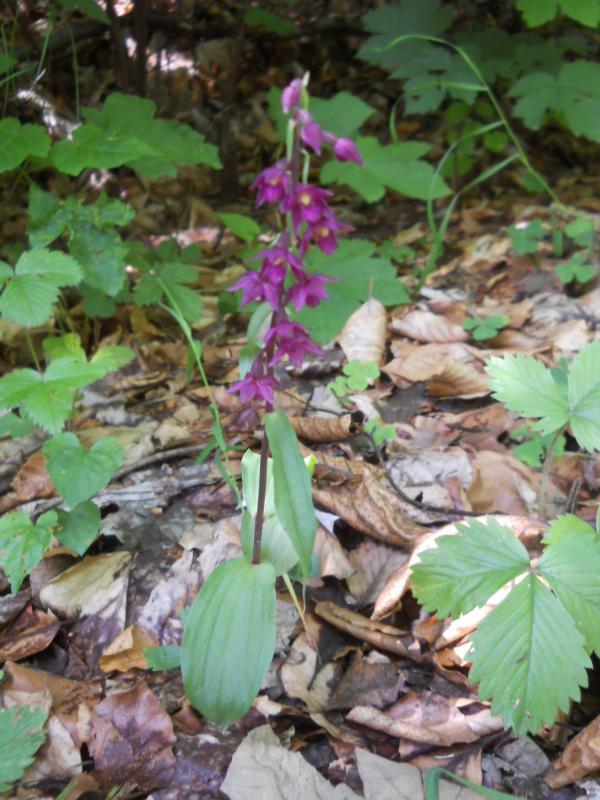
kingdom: Plantae
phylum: Tracheophyta
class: Liliopsida
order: Asparagales
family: Orchidaceae
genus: Epipactis
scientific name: Epipactis atrorubens
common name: Dark-red helleborine
